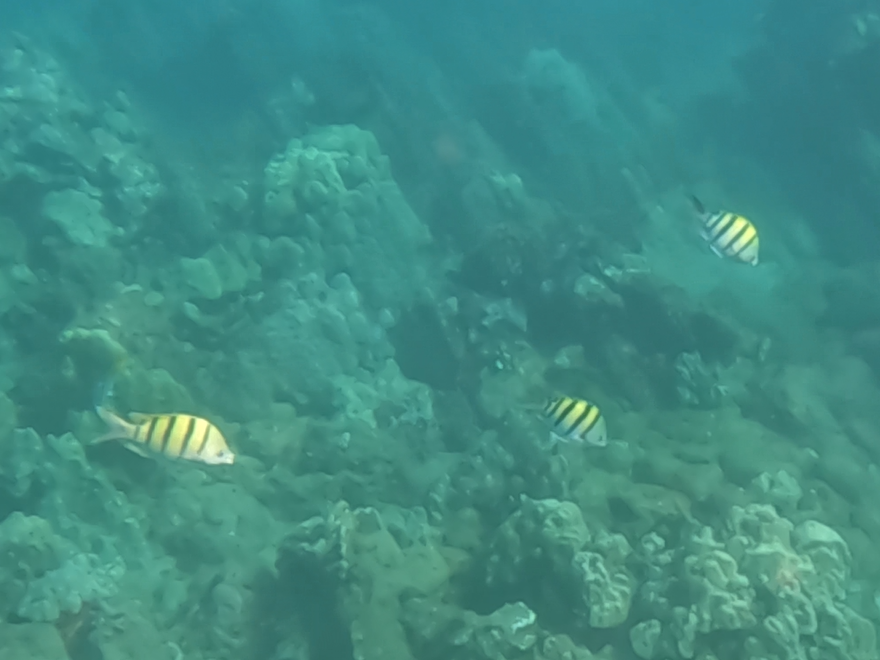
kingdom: Animalia
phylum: Chordata
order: Perciformes
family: Pomacentridae
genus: Abudefduf
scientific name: Abudefduf vaigiensis
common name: Indo-pacific sergeant
